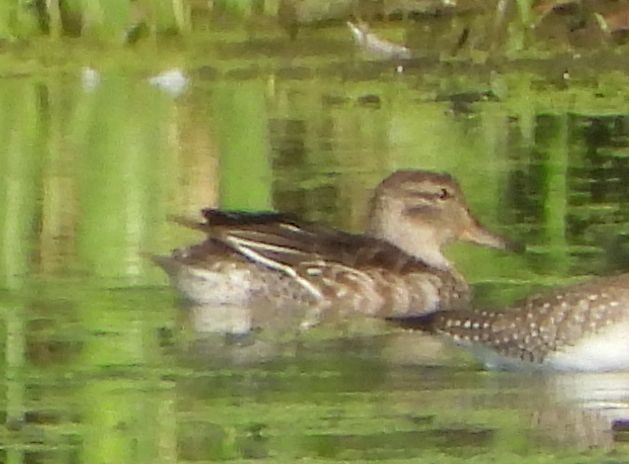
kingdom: Animalia
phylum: Chordata
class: Aves
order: Anseriformes
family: Anatidae
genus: Anas
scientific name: Anas crecca
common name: Eurasian teal
